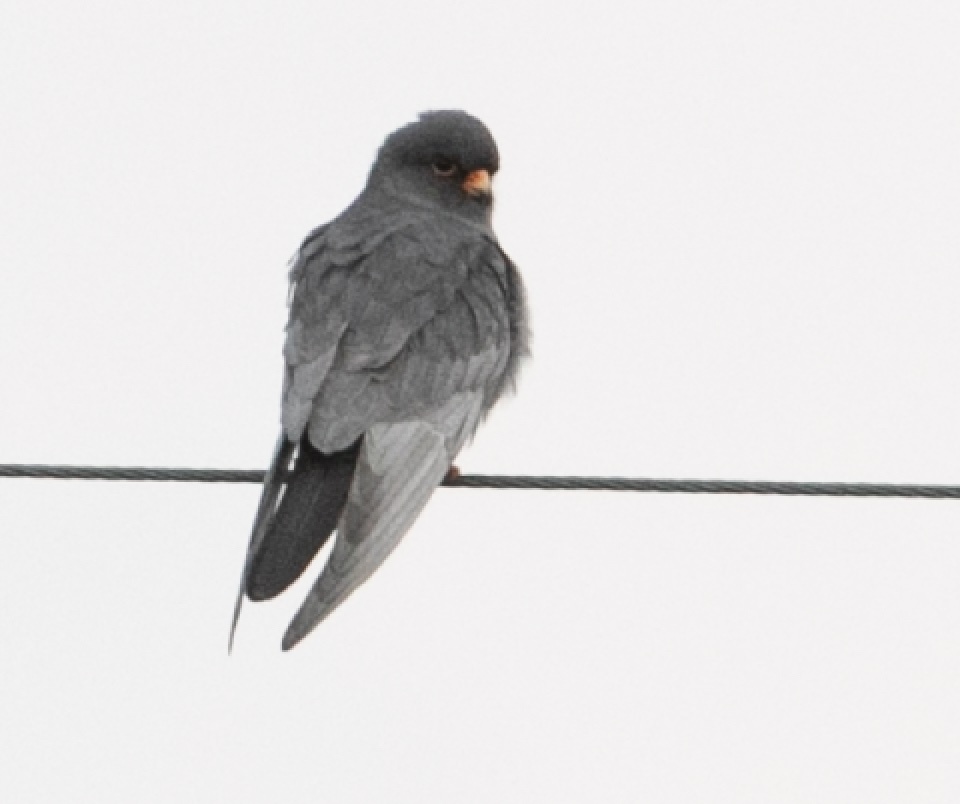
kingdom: Animalia
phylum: Chordata
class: Aves
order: Falconiformes
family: Falconidae
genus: Falco
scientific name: Falco vespertinus
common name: Red-footed falcon
